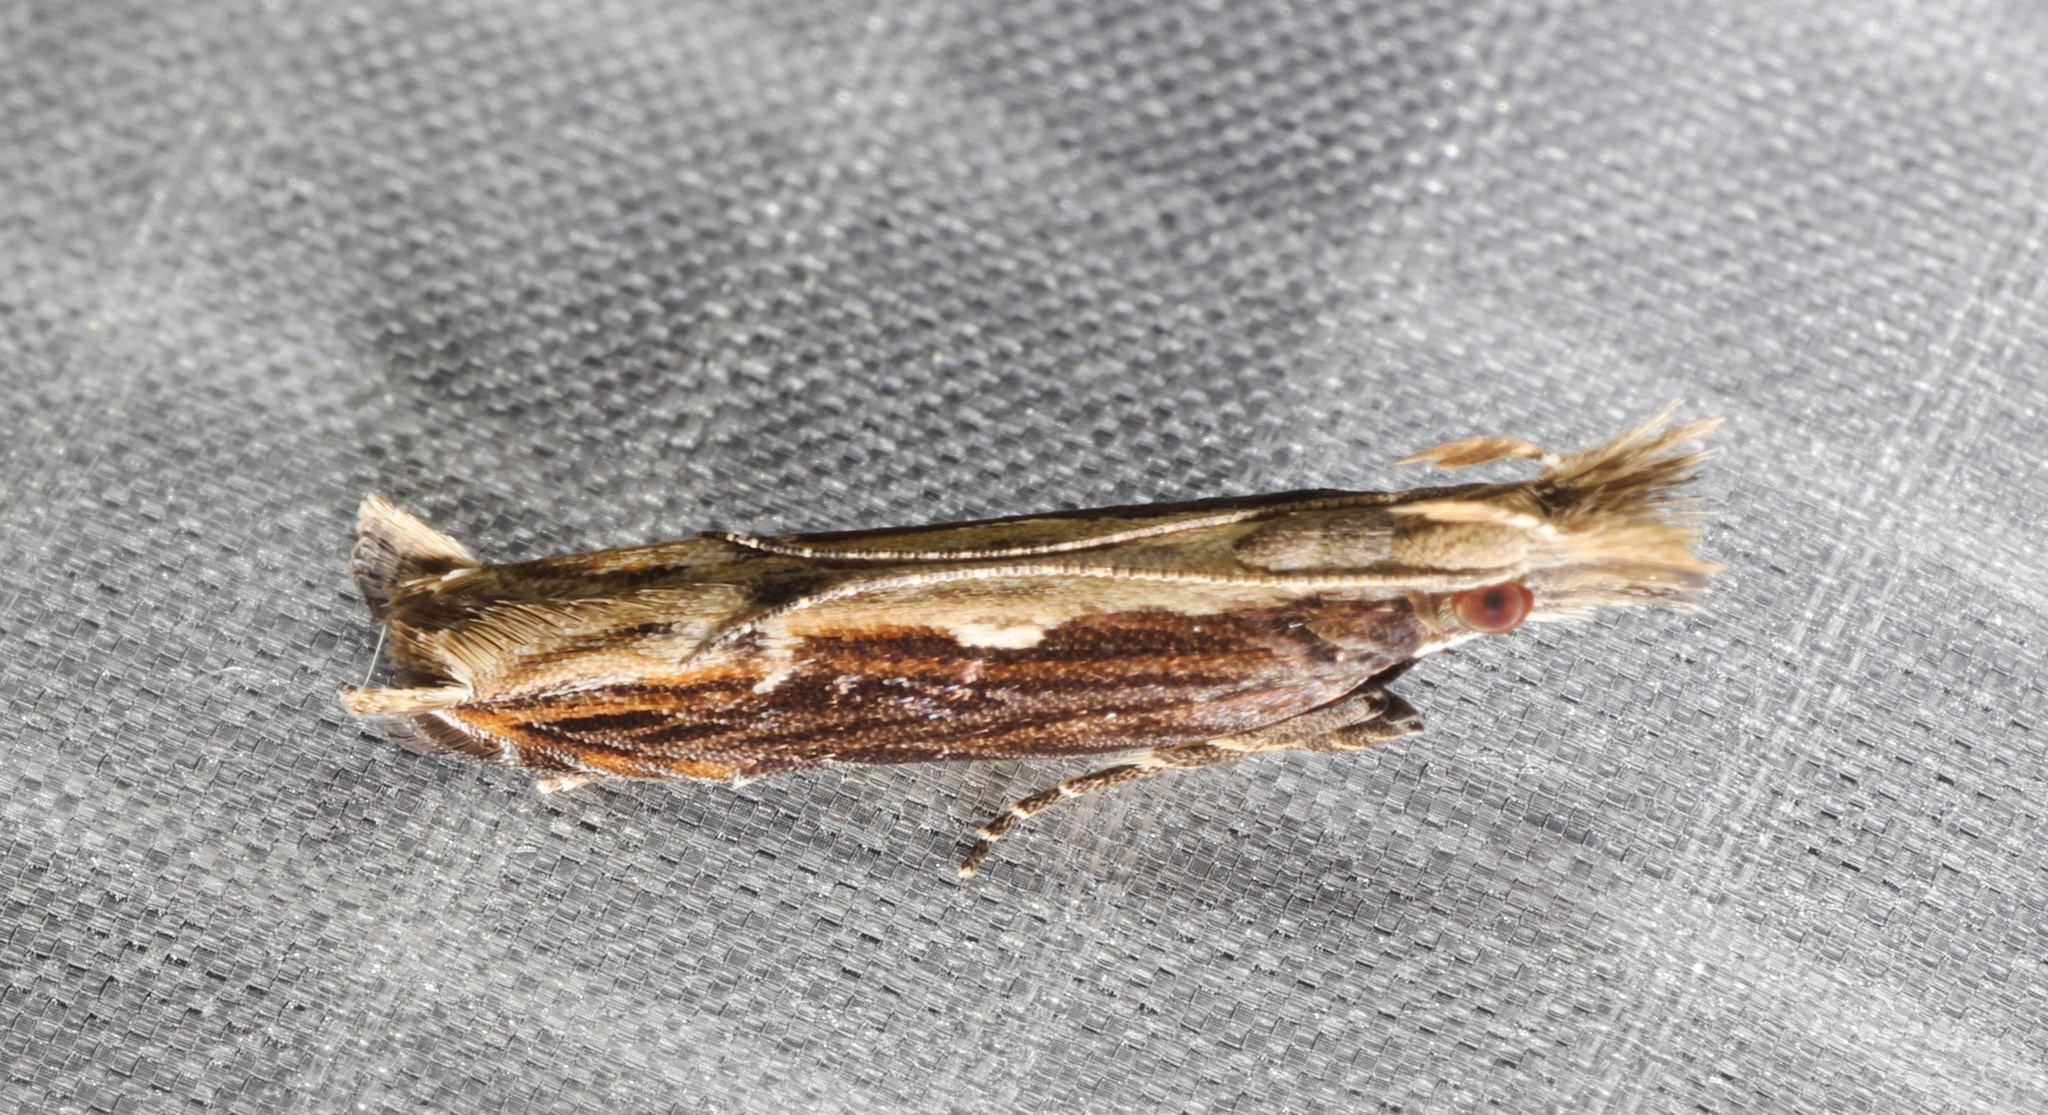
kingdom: Animalia
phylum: Arthropoda
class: Insecta
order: Lepidoptera
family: Gelechiidae
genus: Hypatima
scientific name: Hypatima spathota
